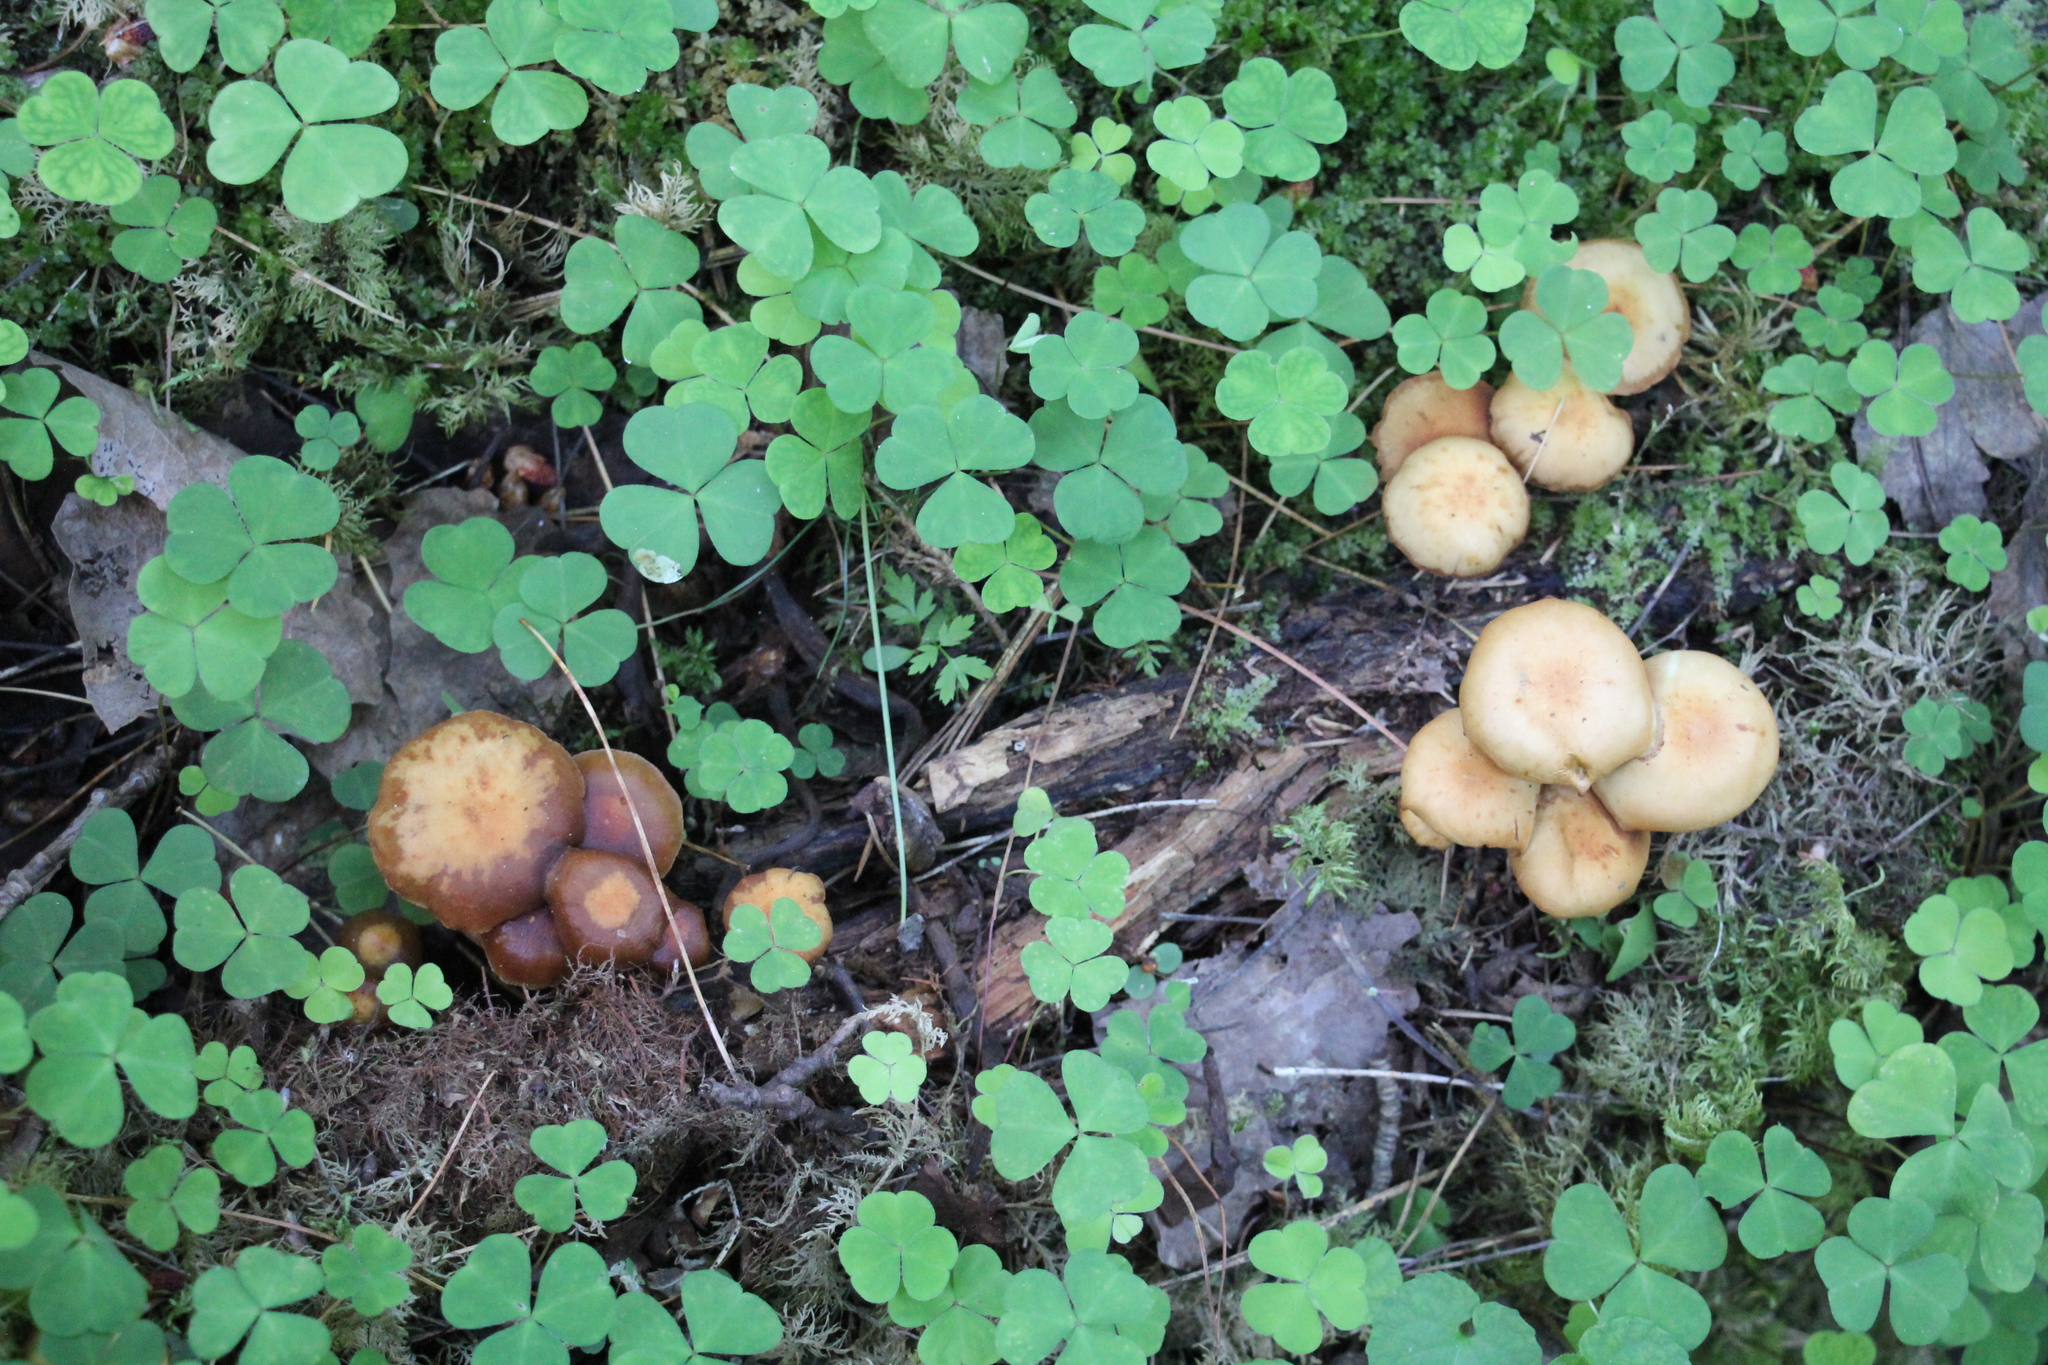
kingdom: Fungi
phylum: Basidiomycota
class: Agaricomycetes
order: Agaricales
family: Strophariaceae
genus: Kuehneromyces
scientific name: Kuehneromyces mutabilis
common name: Sheathed woodtuft
